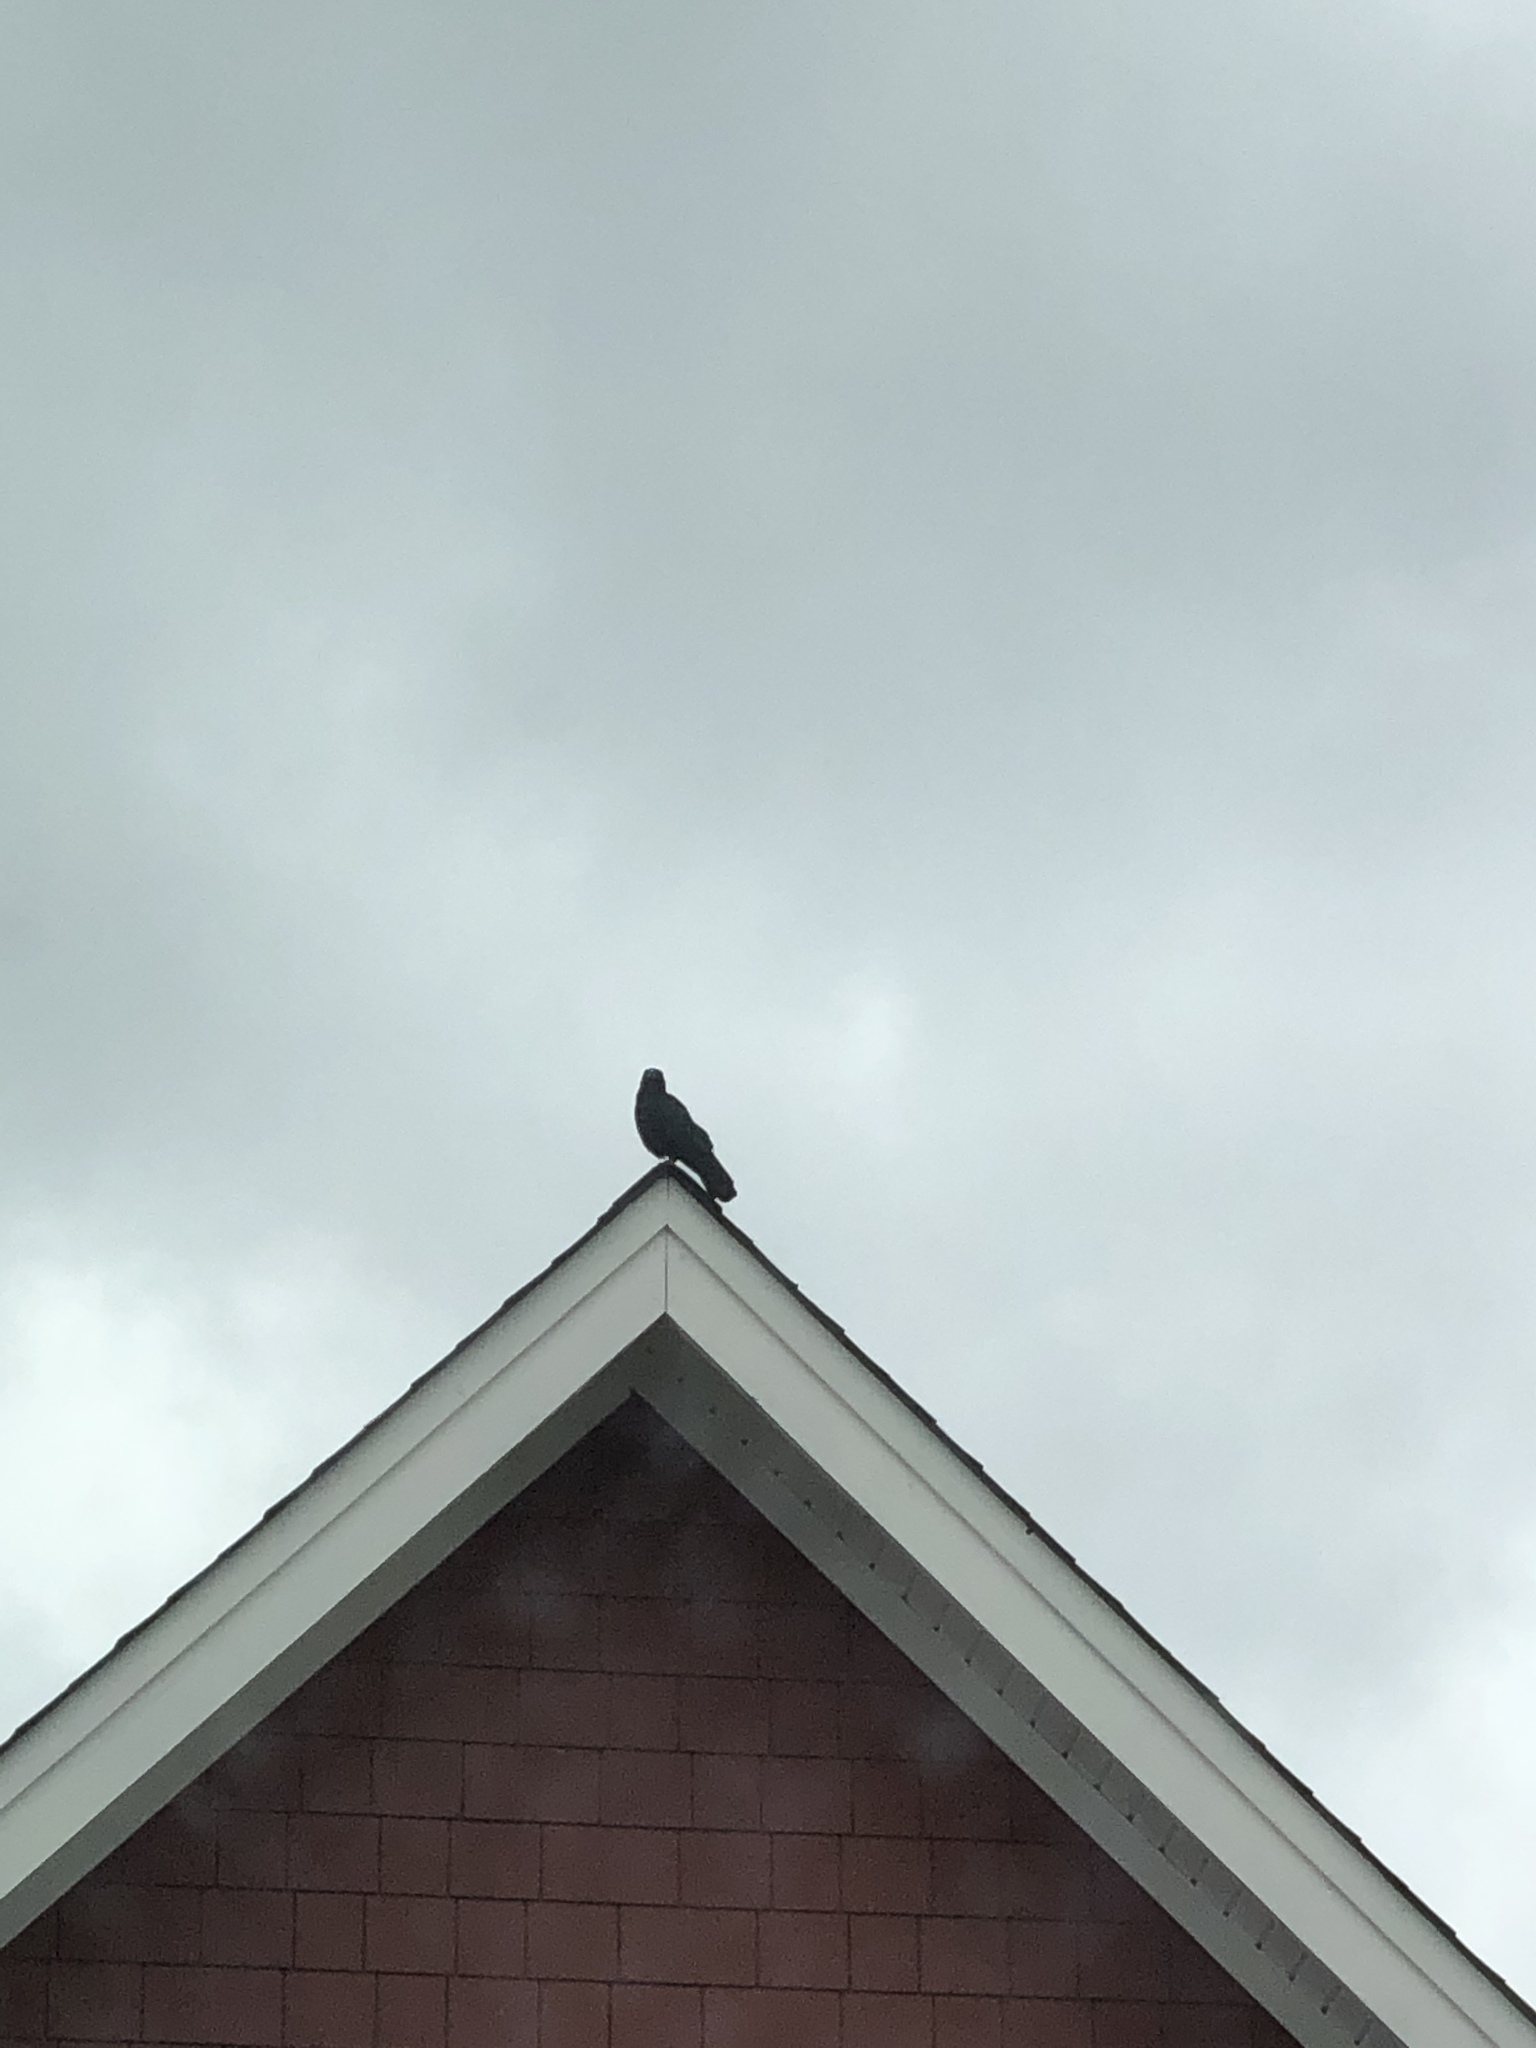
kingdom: Animalia
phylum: Chordata
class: Aves
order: Passeriformes
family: Corvidae
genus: Corvus
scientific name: Corvus brachyrhynchos
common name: American crow
